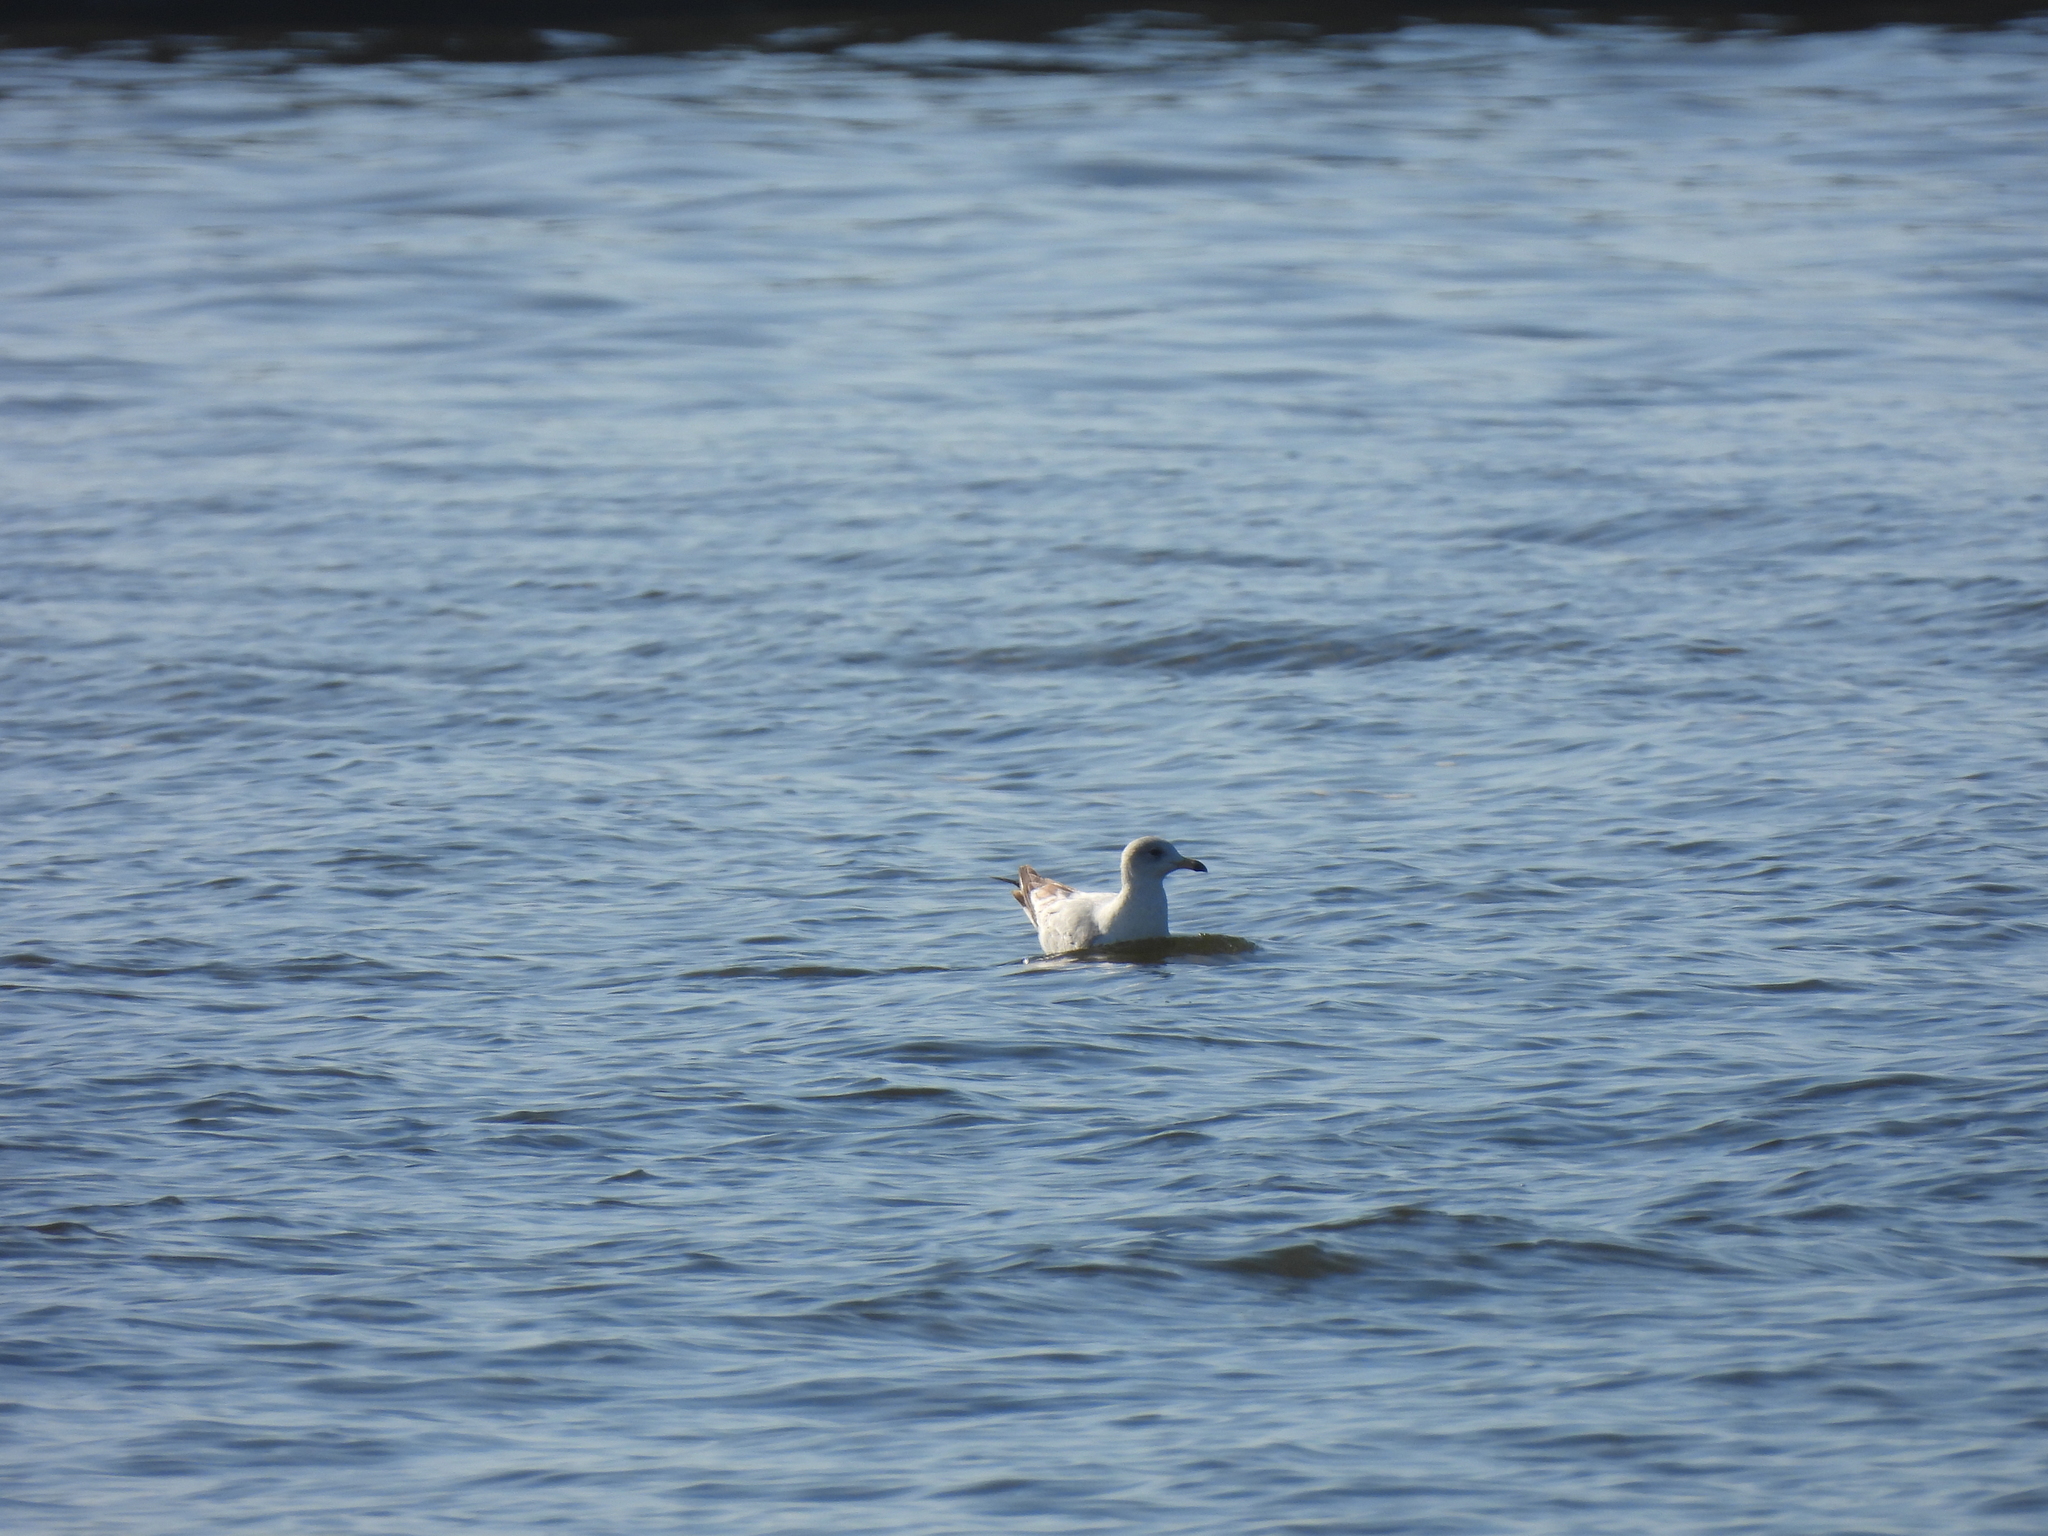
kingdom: Animalia
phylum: Chordata
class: Aves
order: Charadriiformes
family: Laridae
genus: Larus
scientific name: Larus delawarensis
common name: Ring-billed gull
